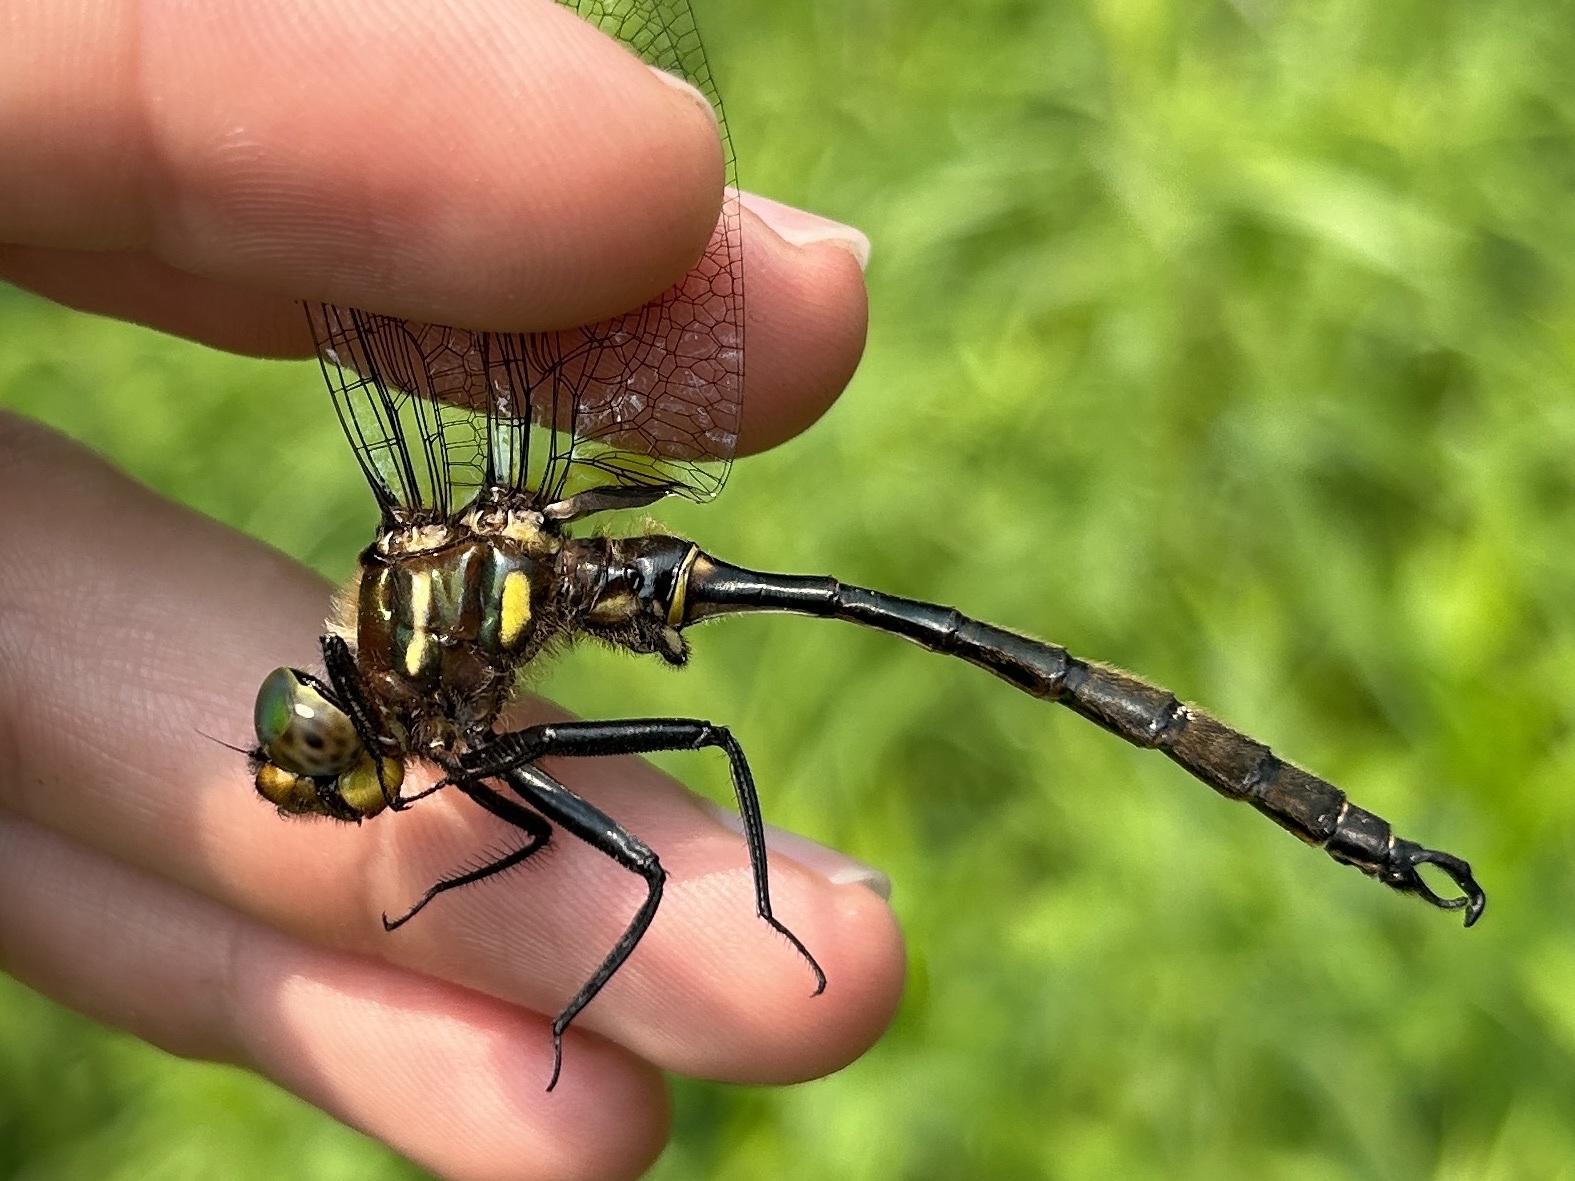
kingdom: Animalia
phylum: Arthropoda
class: Insecta
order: Odonata
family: Corduliidae
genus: Somatochlora
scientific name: Somatochlora hineana
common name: Hine's emerald
